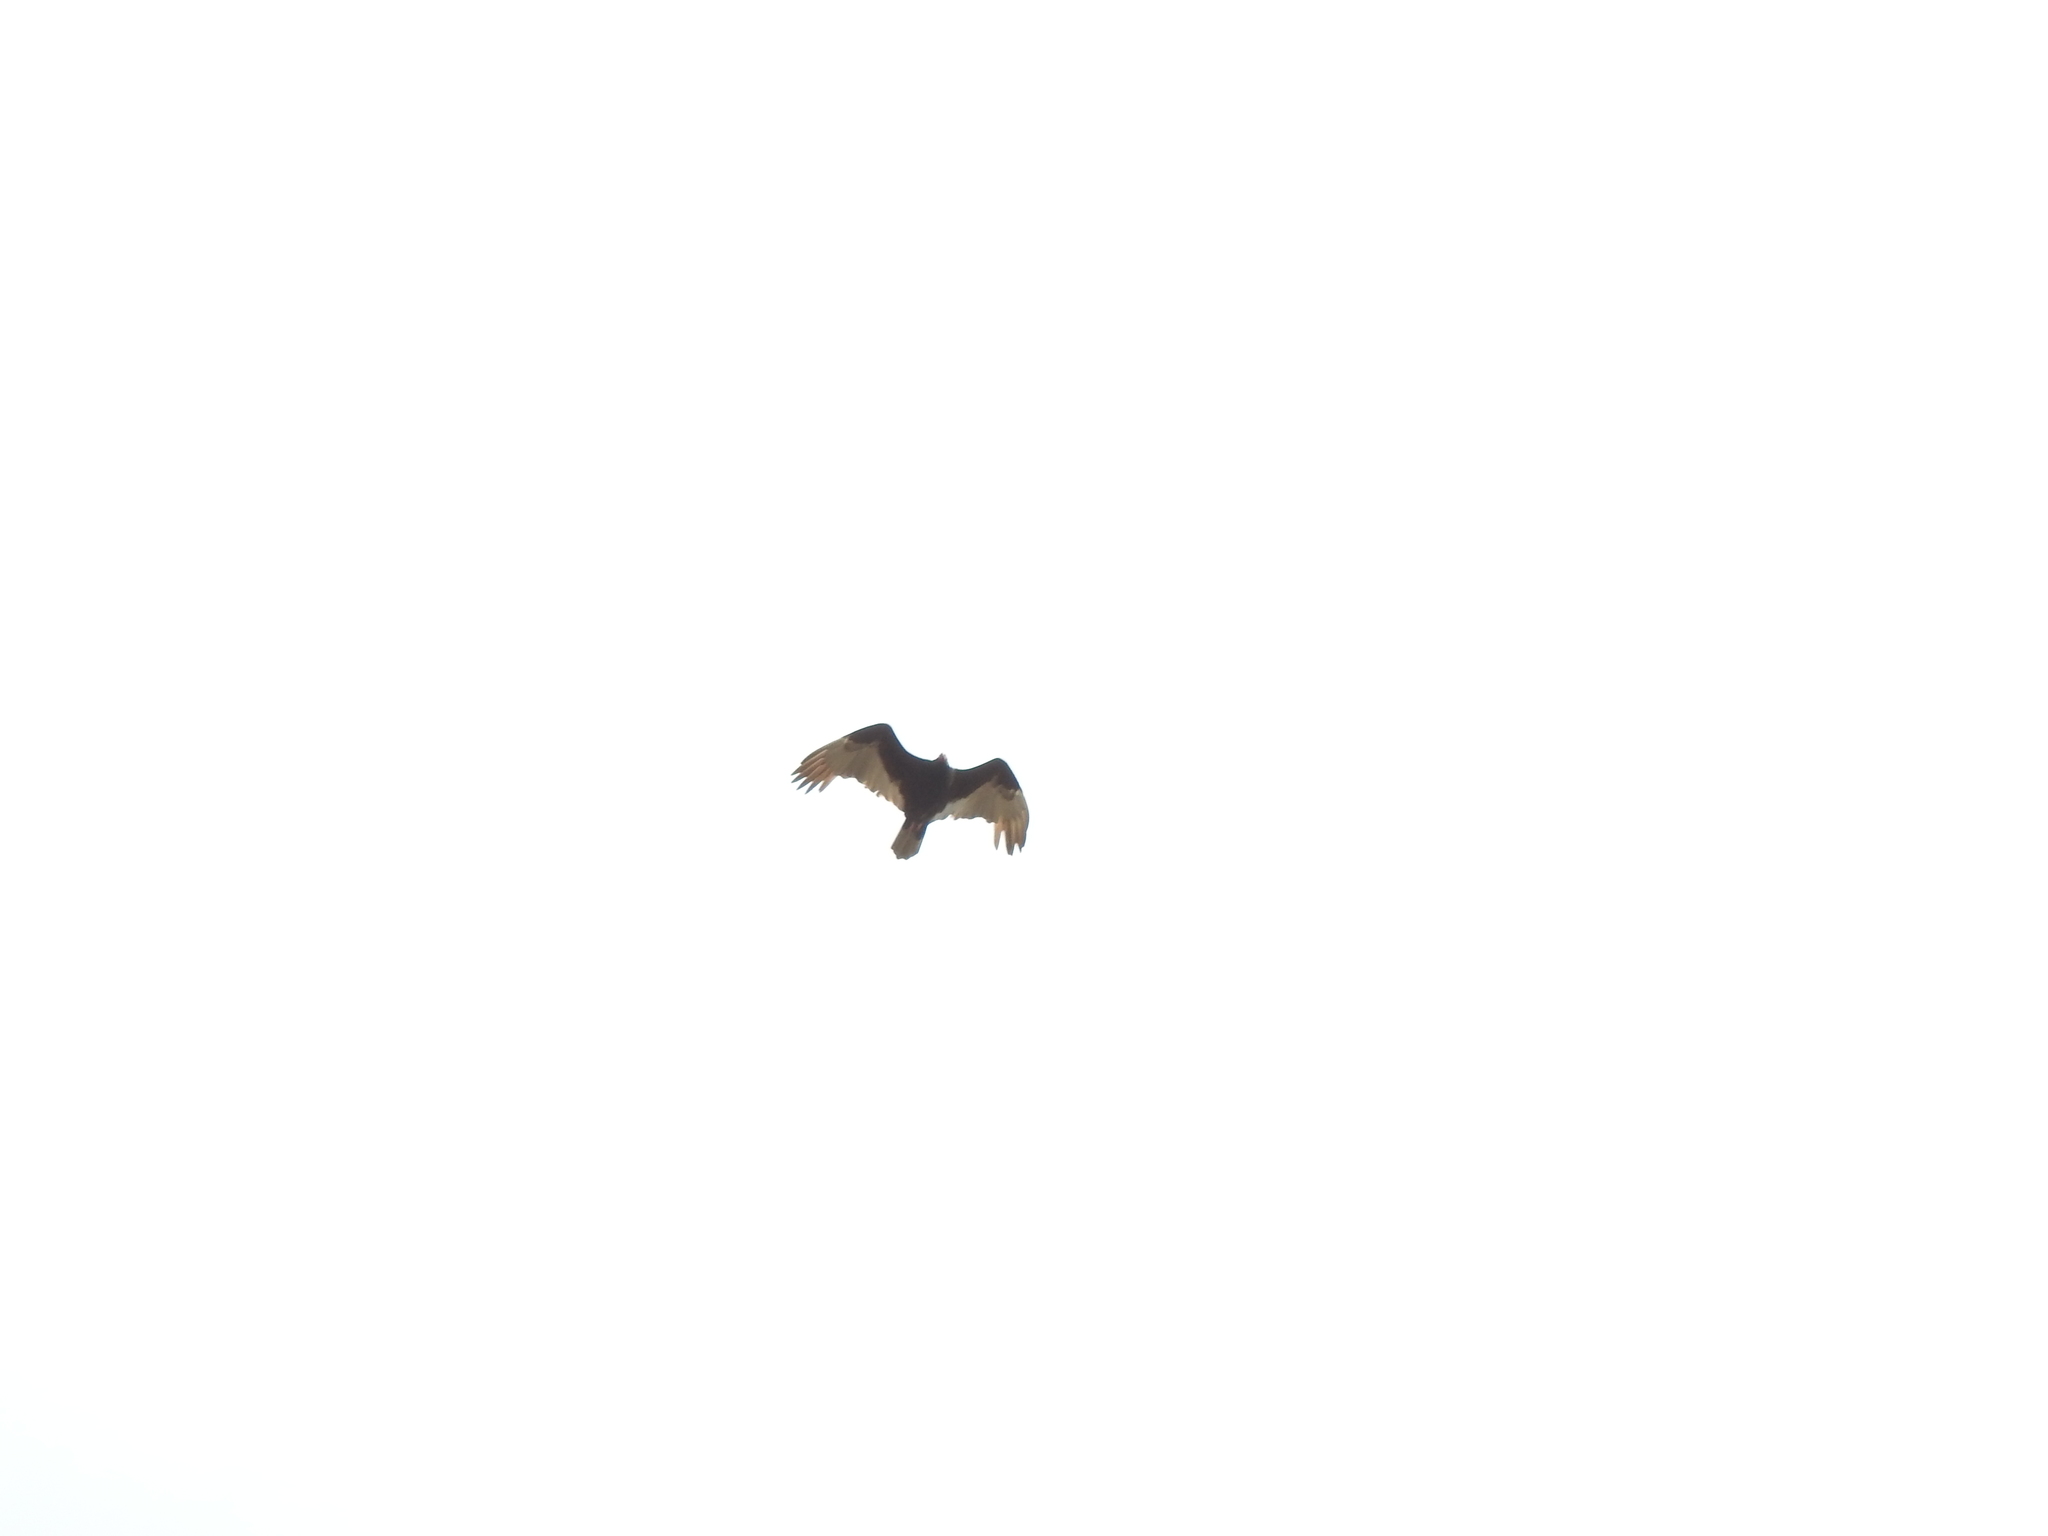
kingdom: Animalia
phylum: Chordata
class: Aves
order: Accipitriformes
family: Cathartidae
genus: Cathartes
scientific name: Cathartes aura
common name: Turkey vulture
